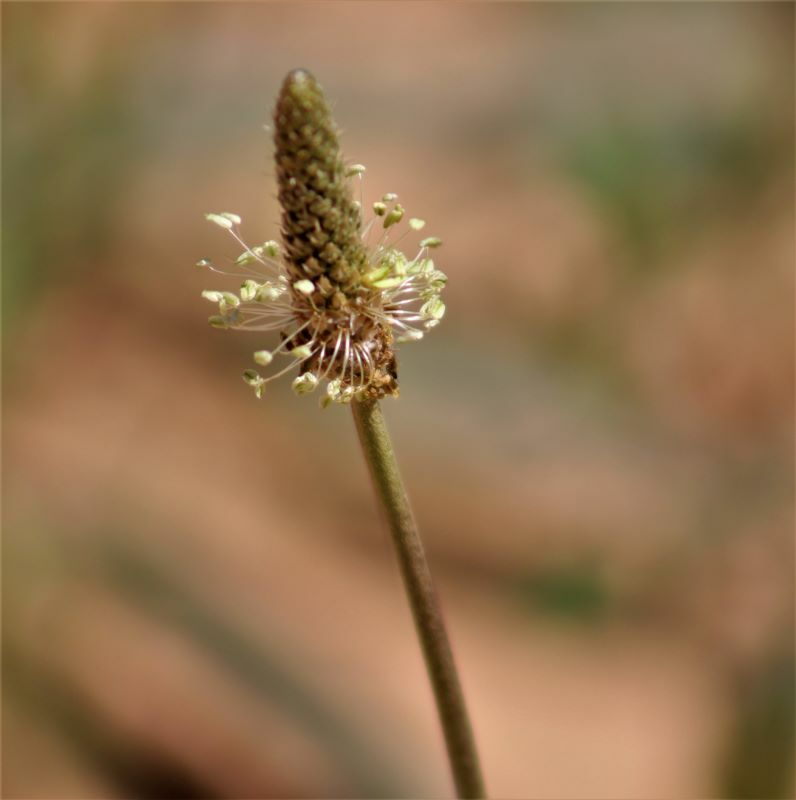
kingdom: Plantae
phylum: Tracheophyta
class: Magnoliopsida
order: Lamiales
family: Plantaginaceae
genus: Plantago
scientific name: Plantago lanceolata
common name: Ribwort plantain
